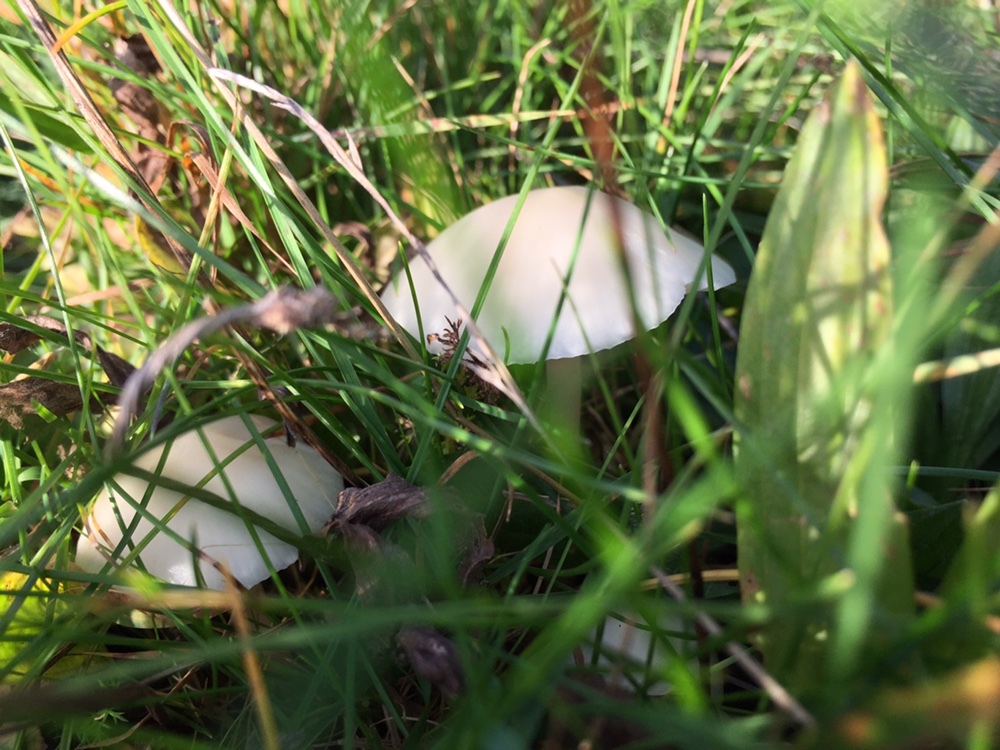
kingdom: Fungi
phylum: Basidiomycota
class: Agaricomycetes
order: Agaricales
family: Hygrophoraceae
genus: Cuphophyllus
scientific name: Cuphophyllus virgineus
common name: Snowy waxcap
